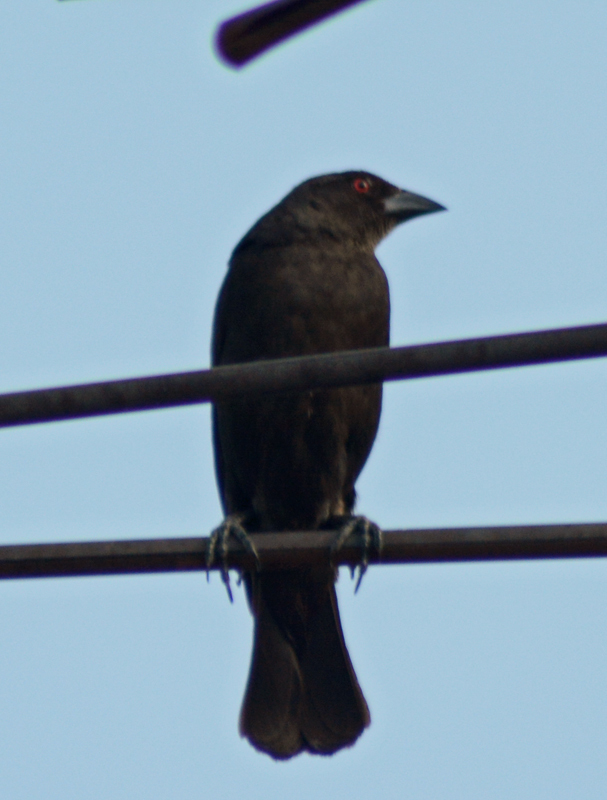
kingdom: Animalia
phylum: Chordata
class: Aves
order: Passeriformes
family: Icteridae
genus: Molothrus
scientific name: Molothrus aeneus
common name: Bronzed cowbird
